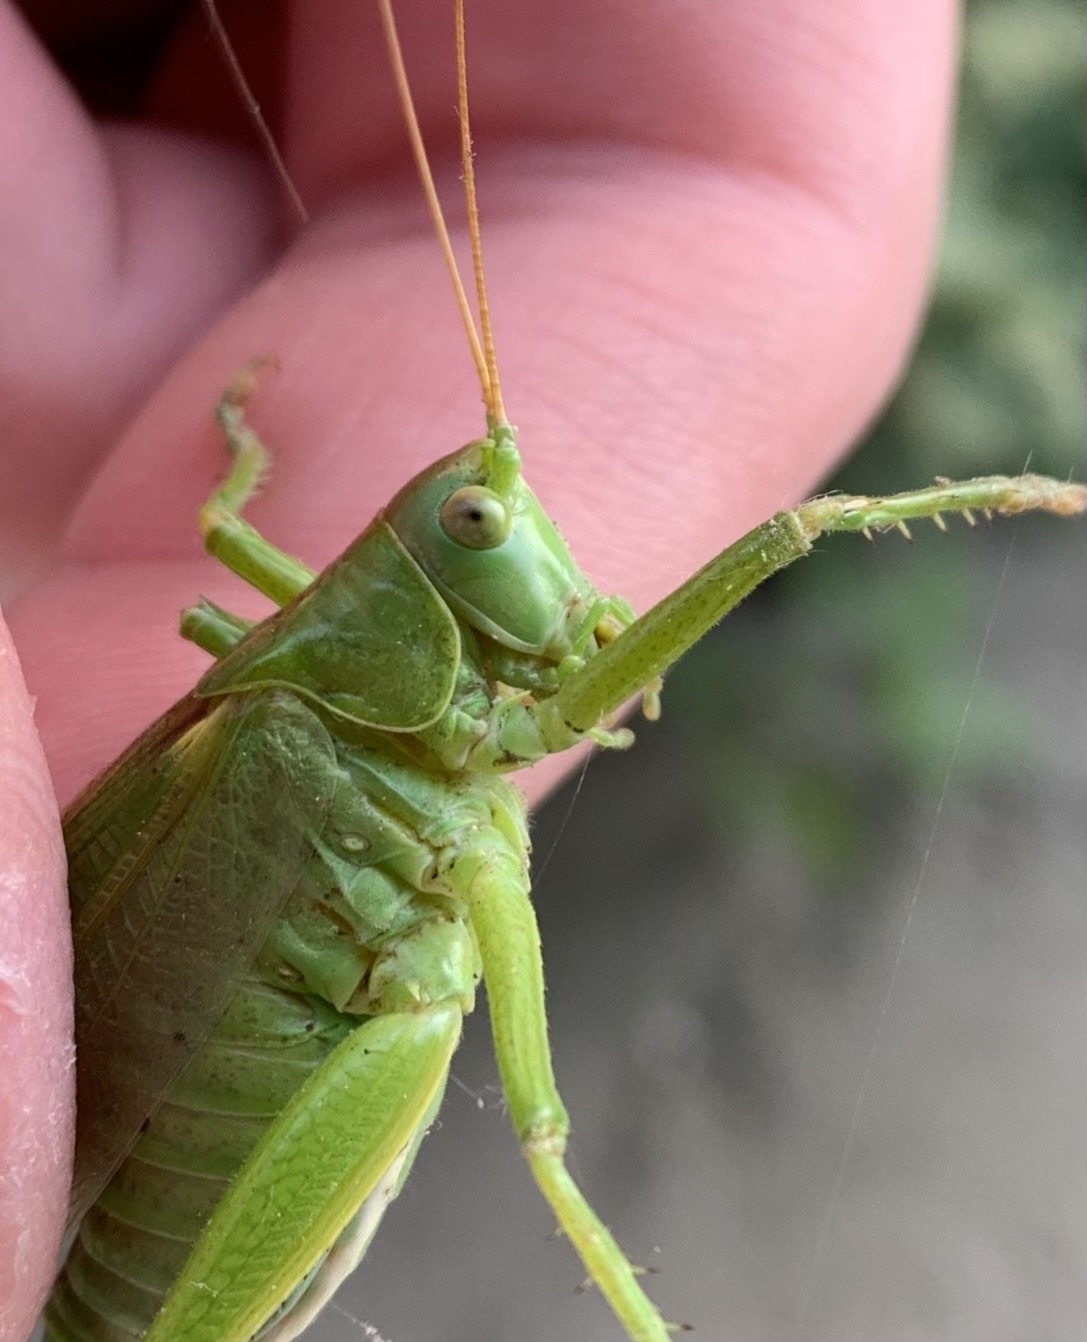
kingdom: Animalia
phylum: Arthropoda
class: Insecta
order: Orthoptera
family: Tettigoniidae
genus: Tettigonia
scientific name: Tettigonia viridissima
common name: Great green bush-cricket
